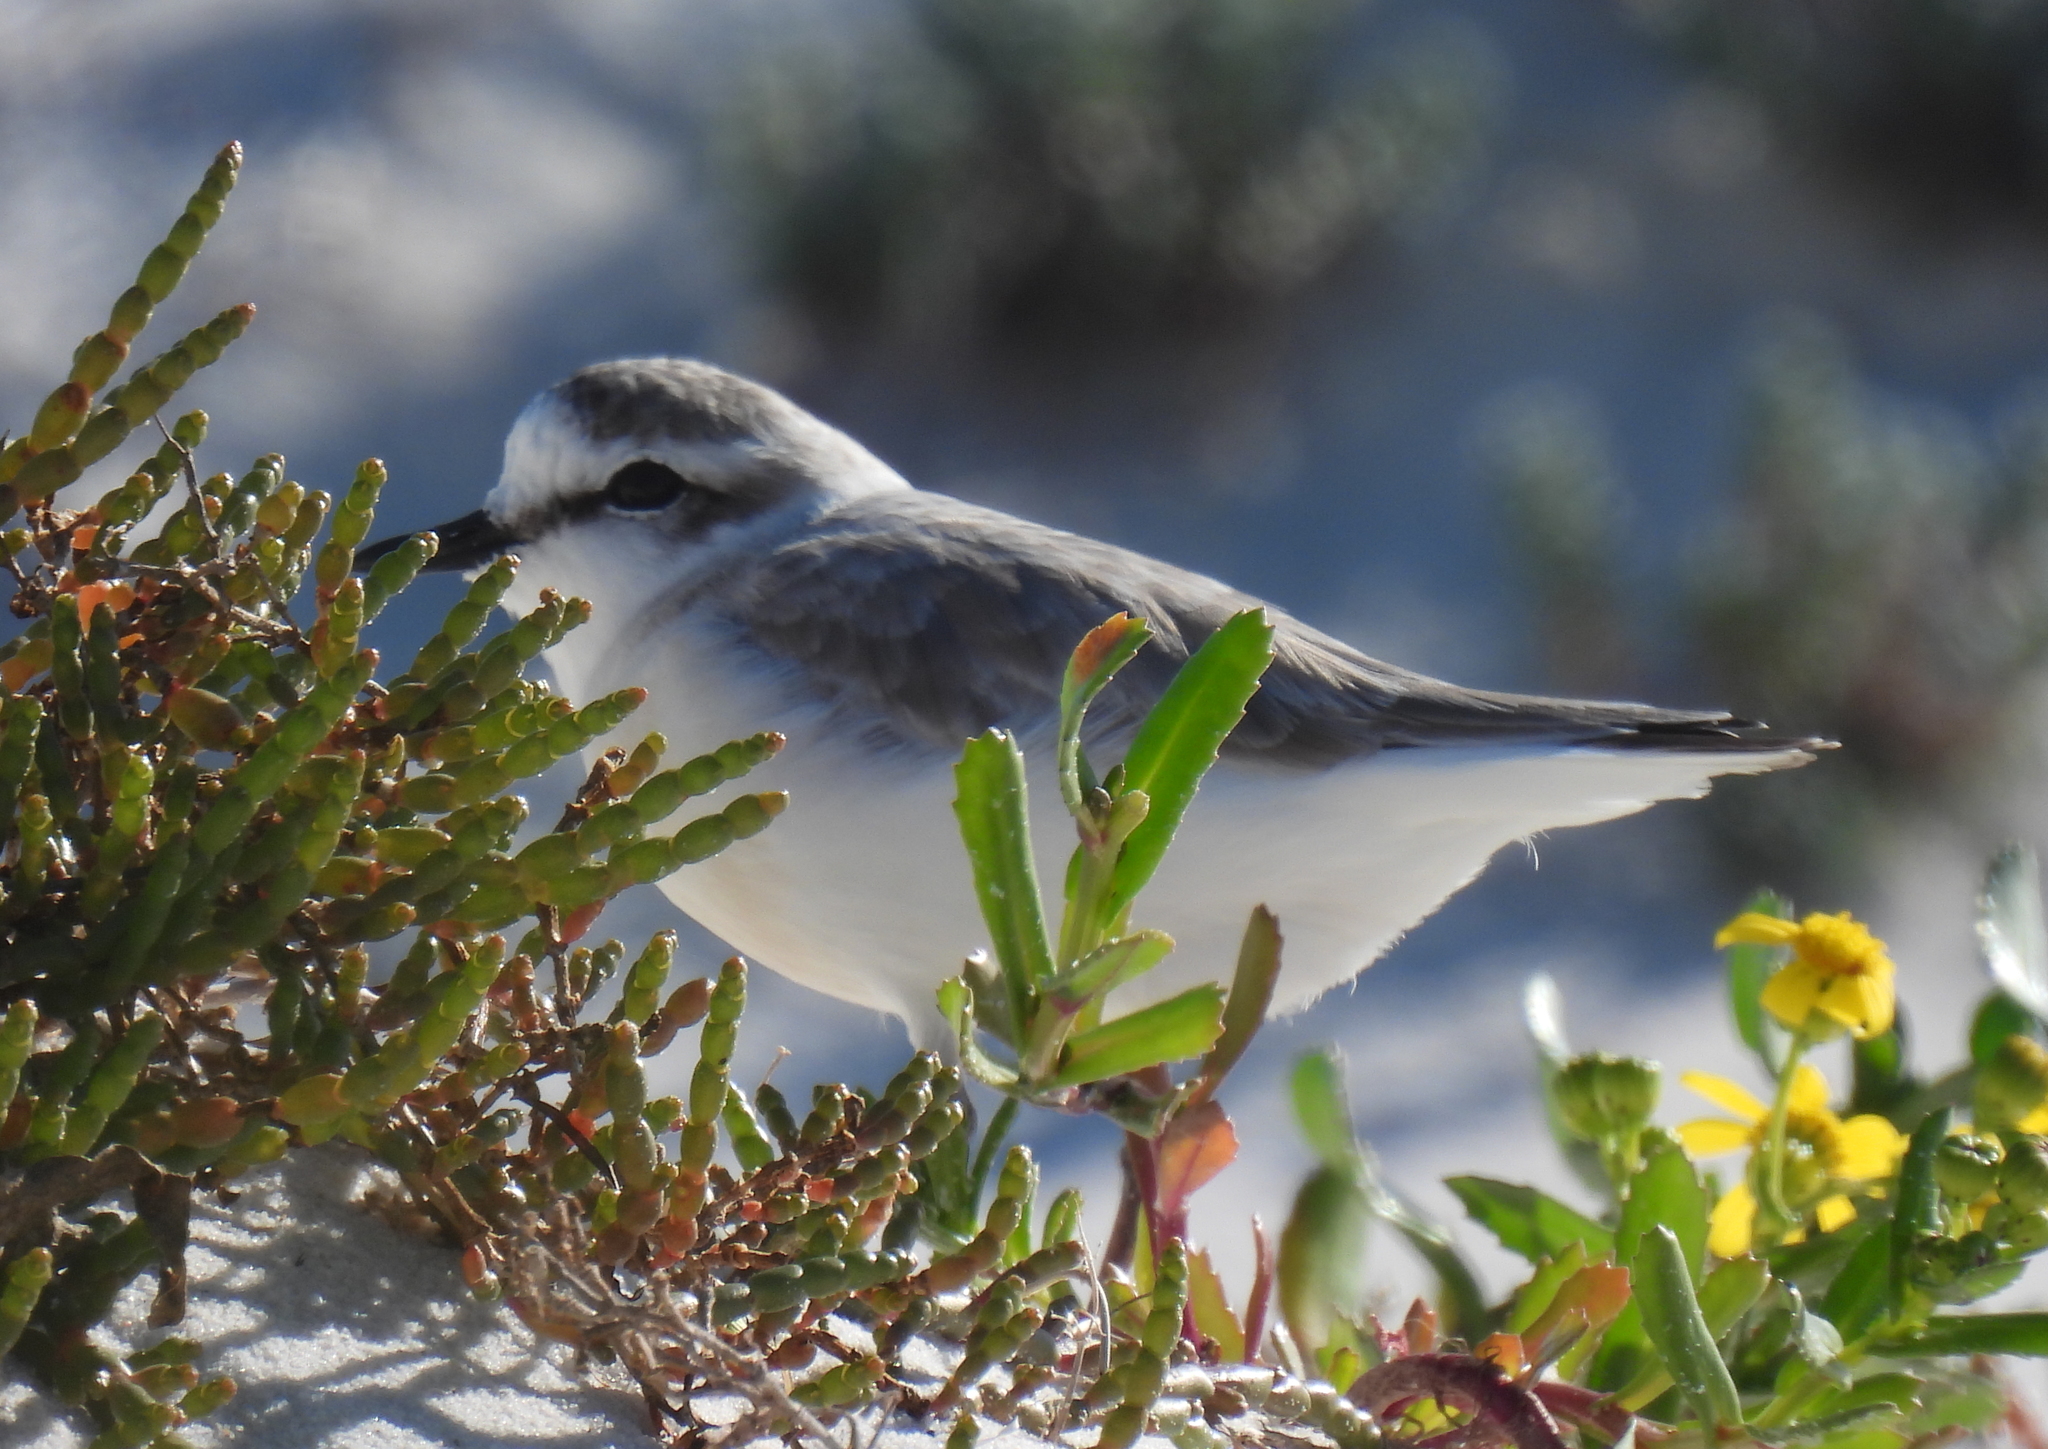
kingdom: Animalia
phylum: Chordata
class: Aves
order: Charadriiformes
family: Charadriidae
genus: Anarhynchus
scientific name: Anarhynchus
